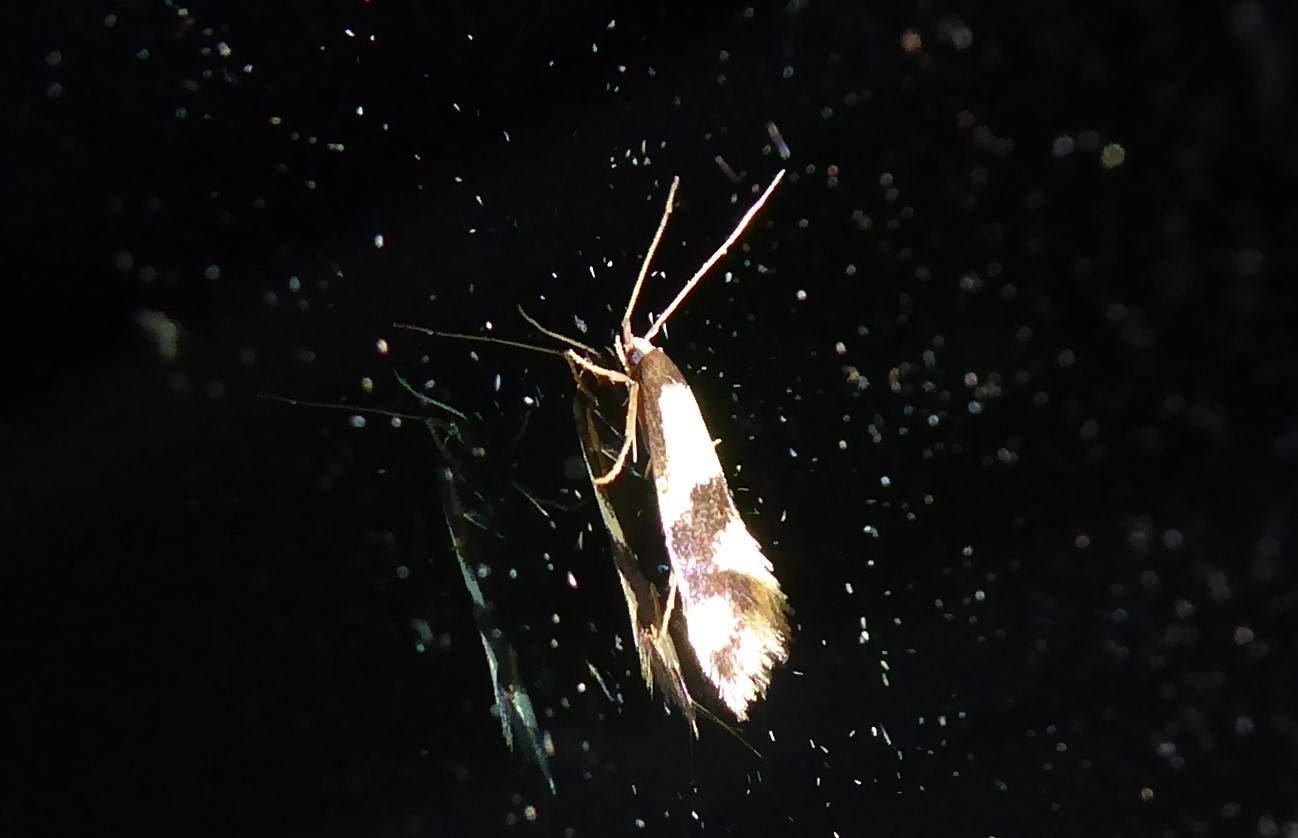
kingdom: Animalia
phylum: Arthropoda
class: Insecta
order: Lepidoptera
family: Tineidae
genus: Opogona
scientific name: Opogona comptella
